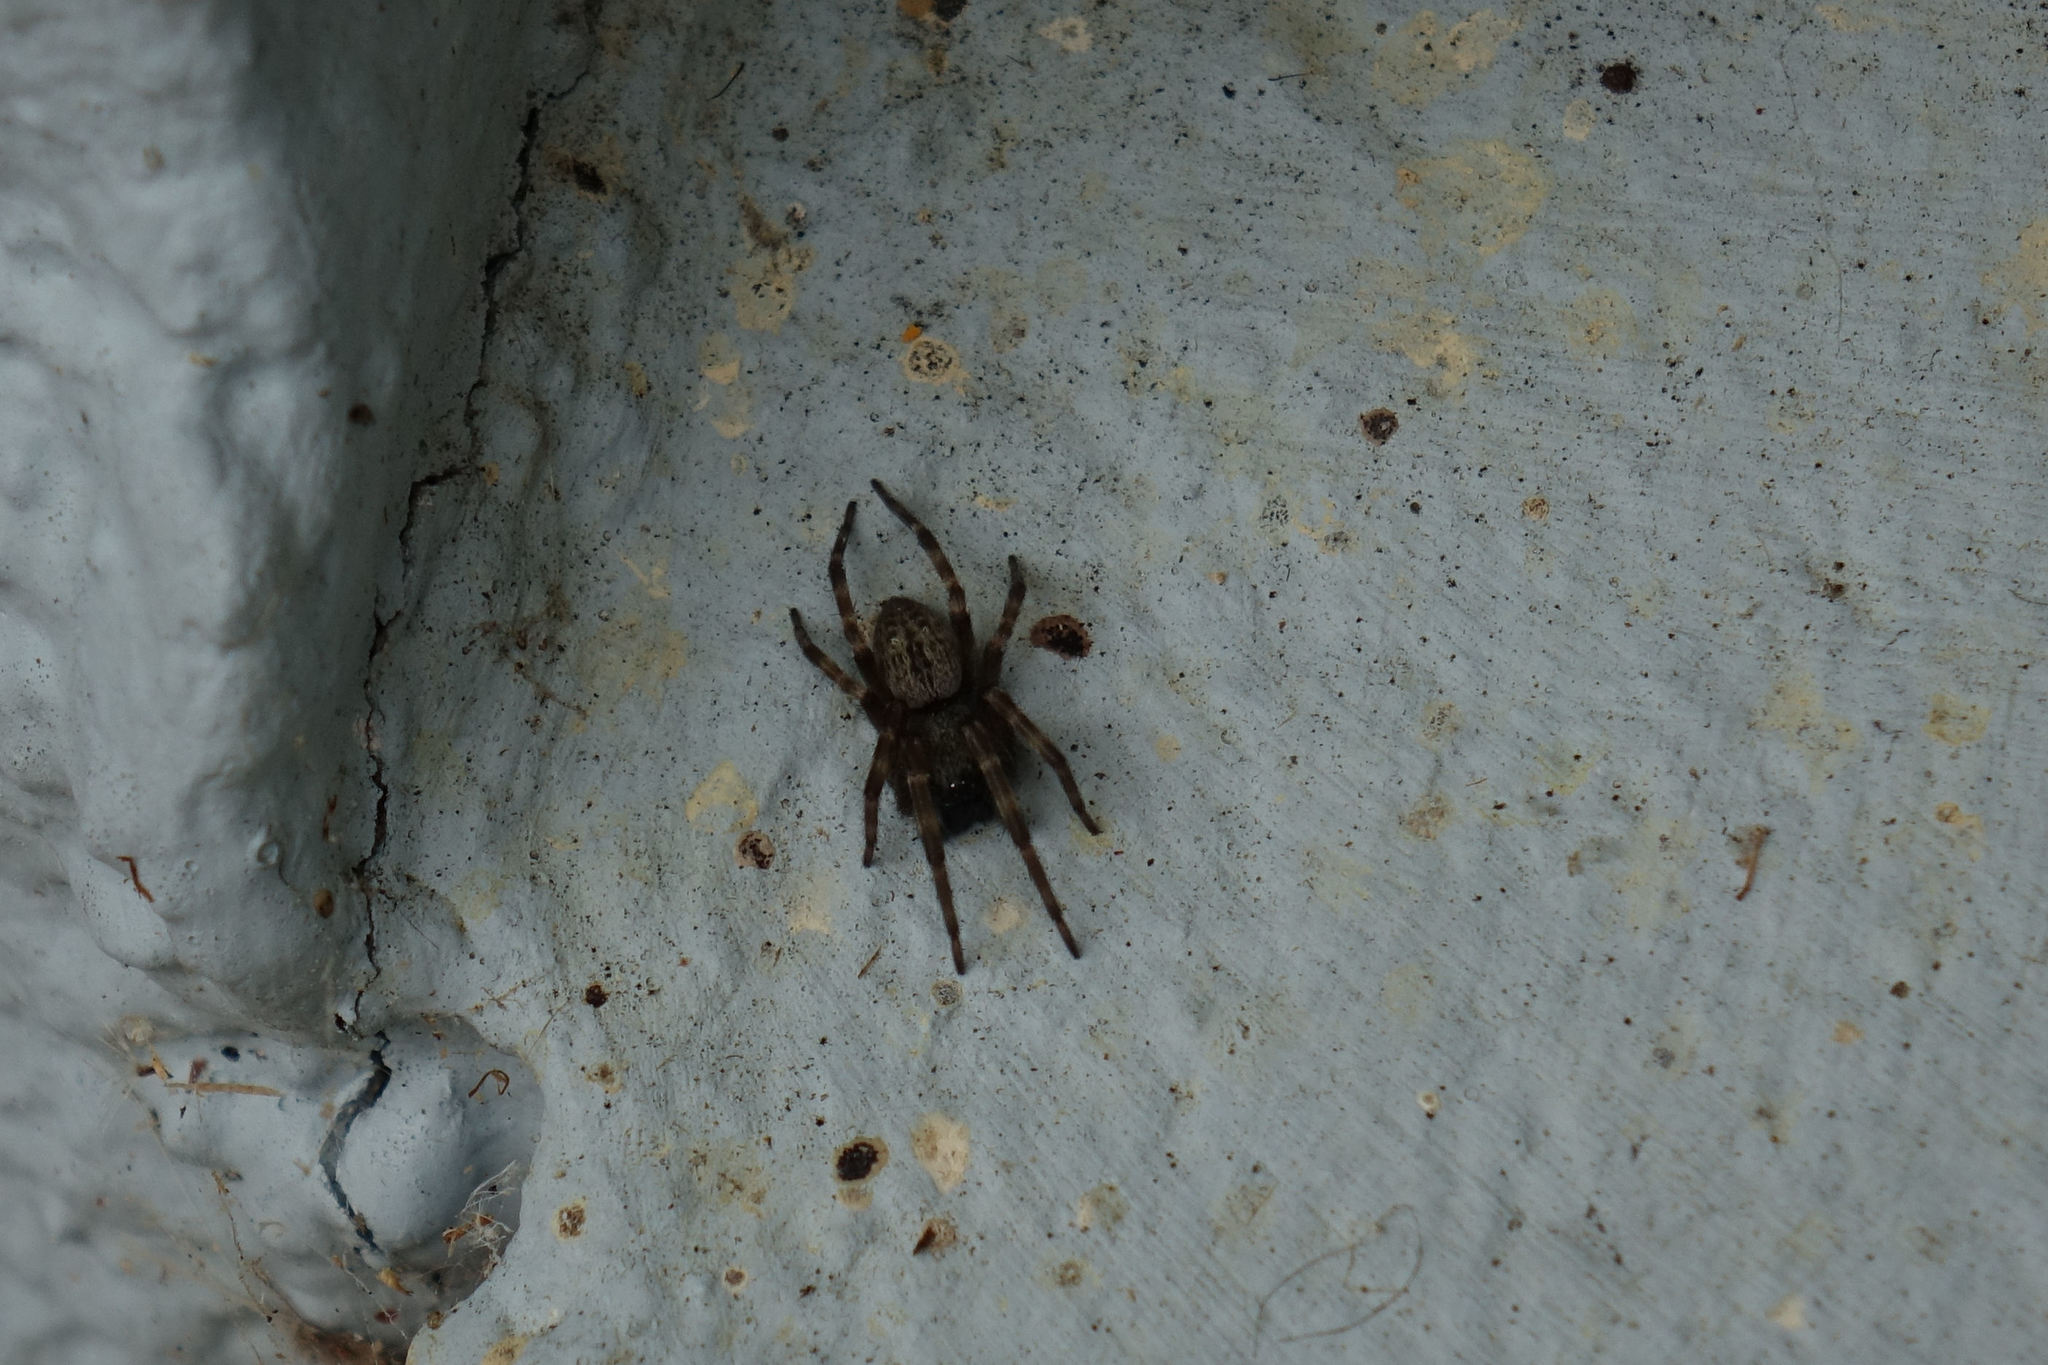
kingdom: Animalia
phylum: Arthropoda
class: Arachnida
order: Araneae
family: Desidae
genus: Badumna
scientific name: Badumna longinqua
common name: Gray house spider
